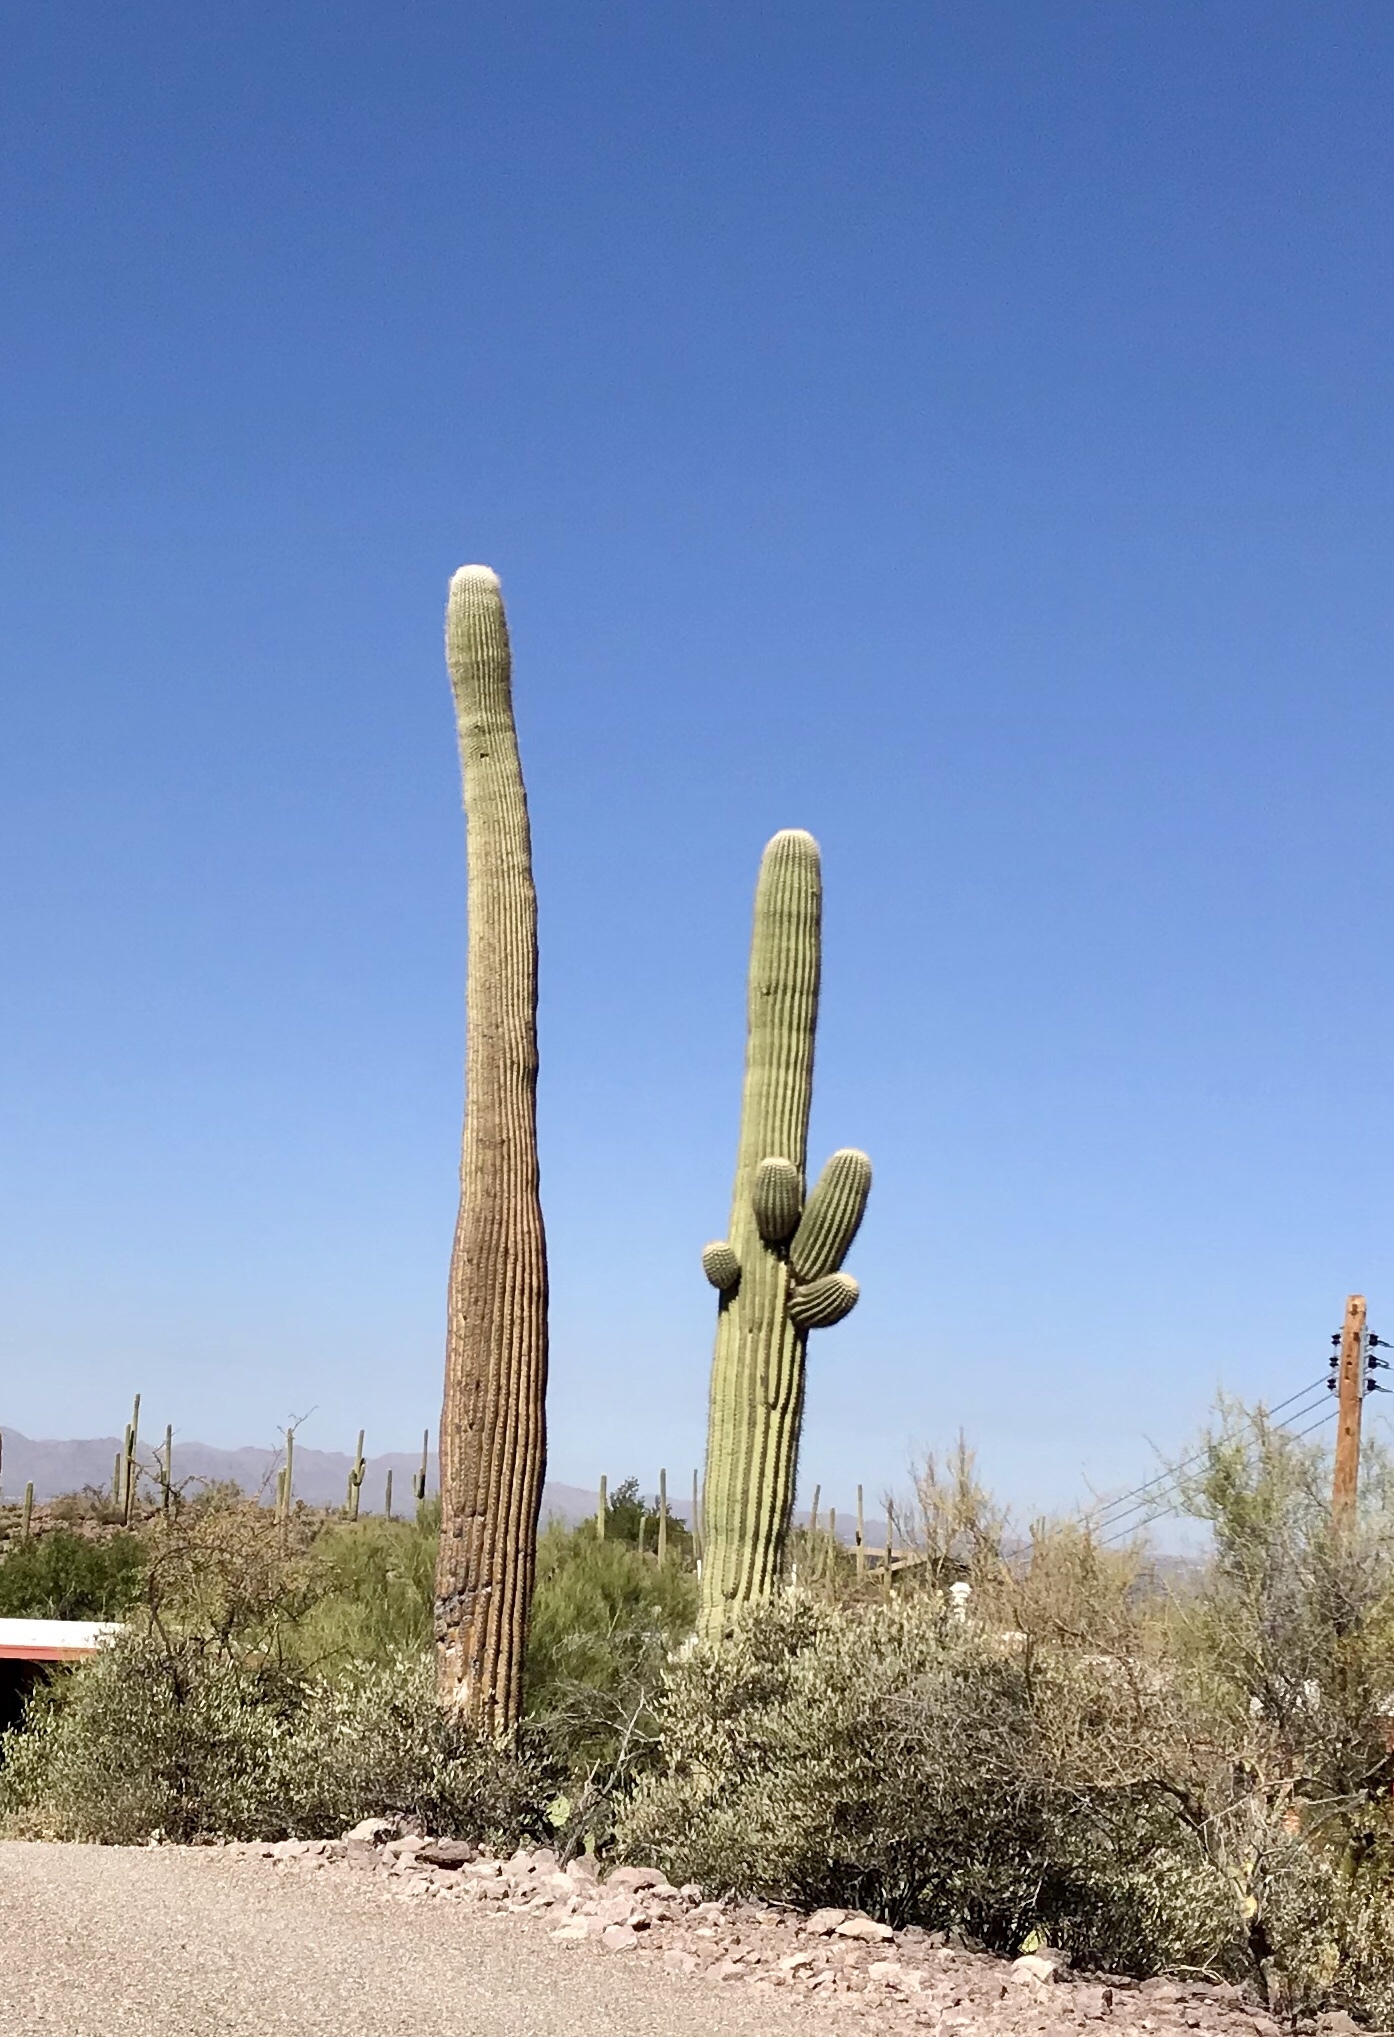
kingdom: Plantae
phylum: Tracheophyta
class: Magnoliopsida
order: Caryophyllales
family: Cactaceae
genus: Carnegiea
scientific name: Carnegiea gigantea
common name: Saguaro
